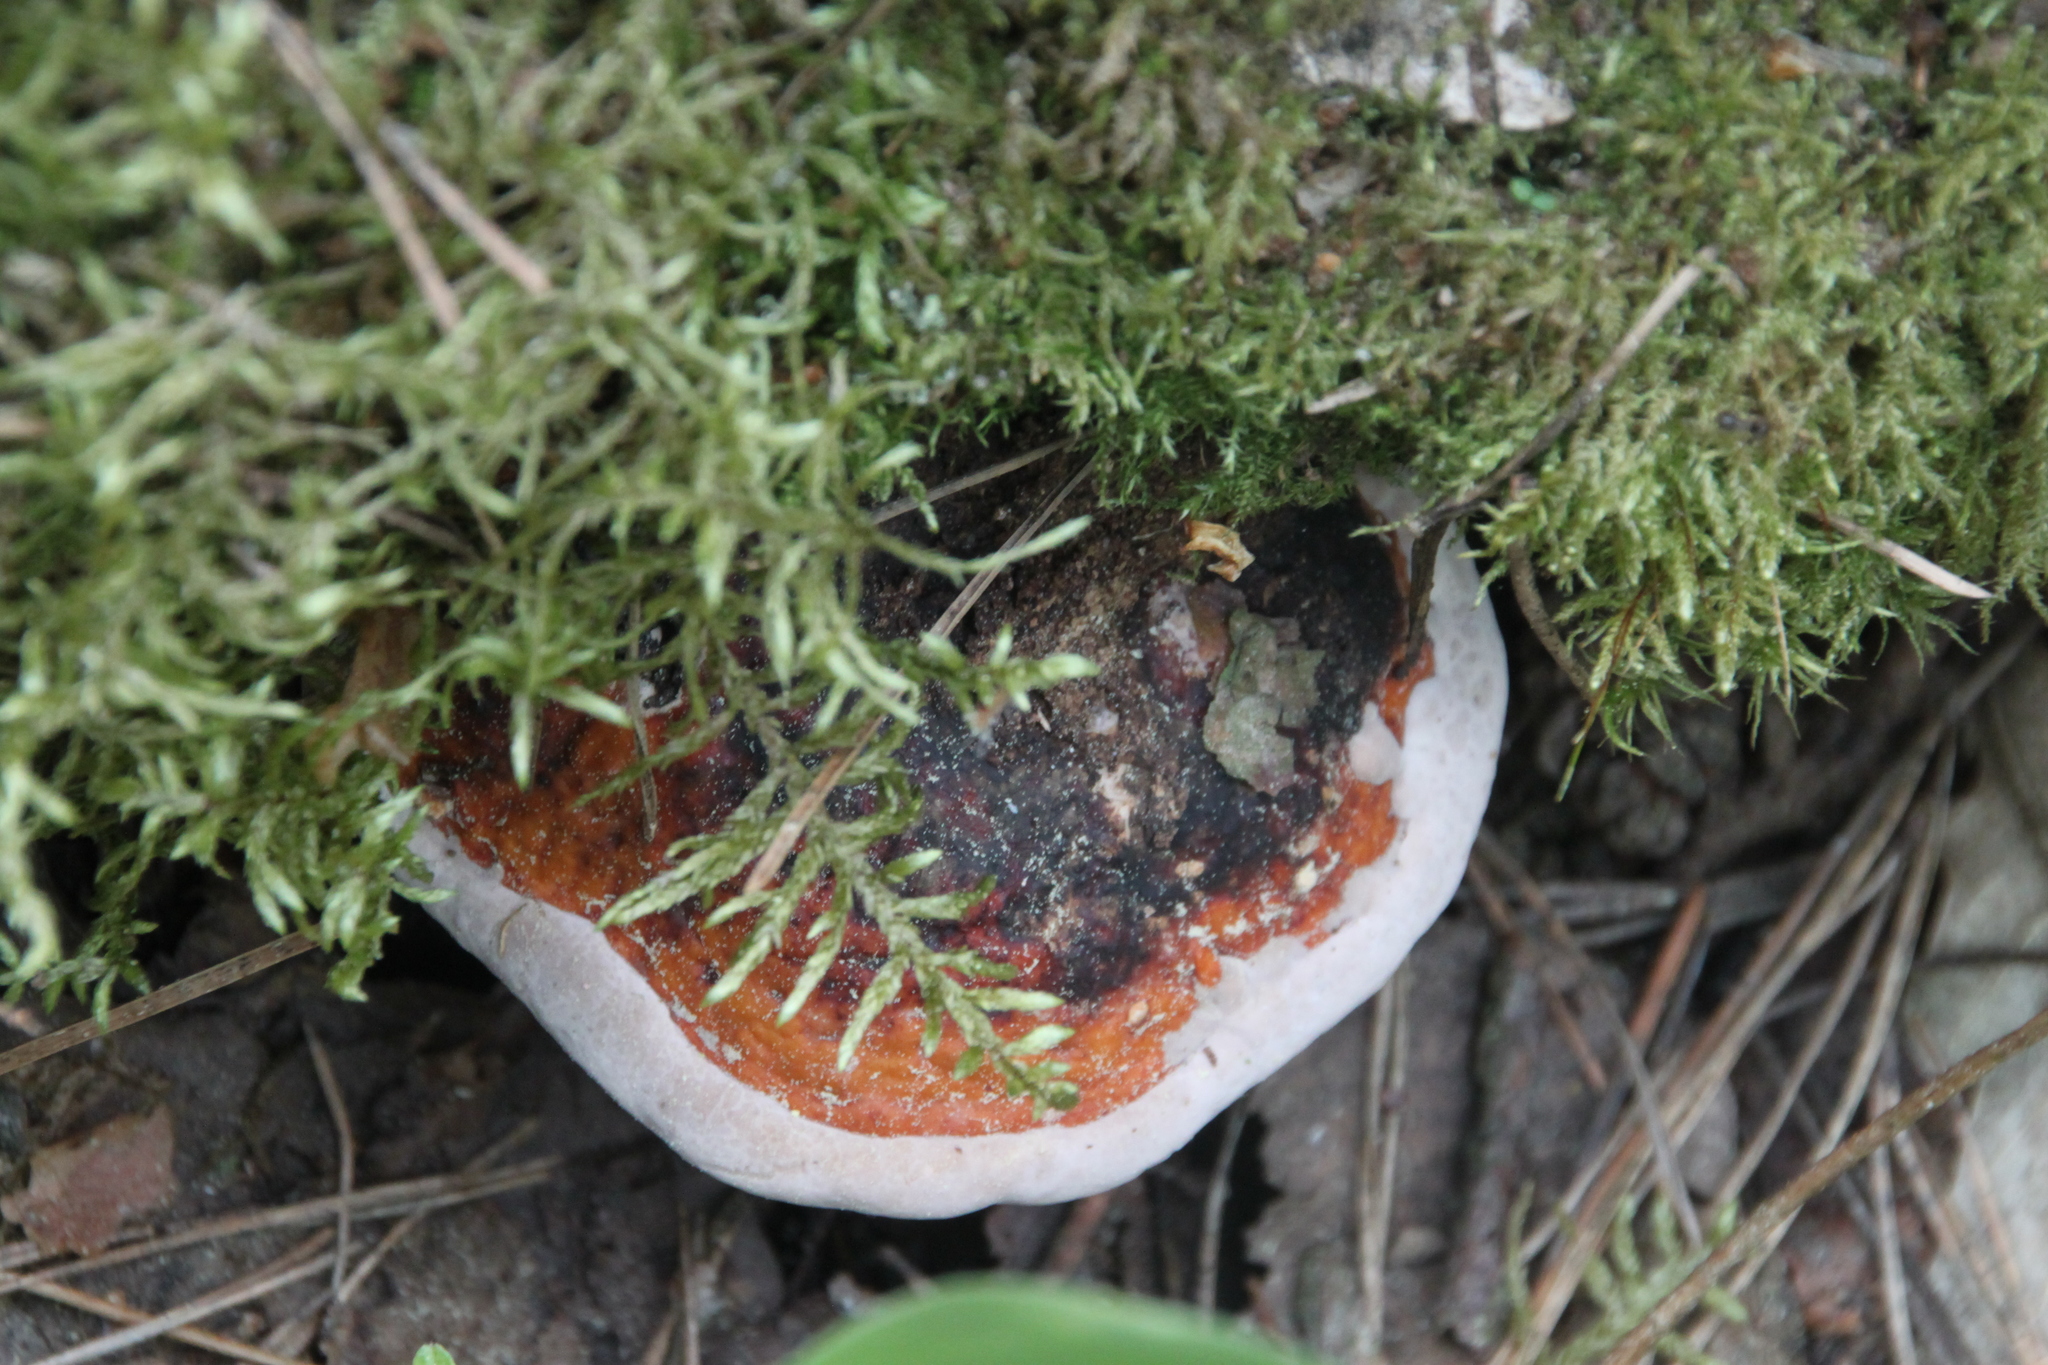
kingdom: Fungi
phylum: Basidiomycota
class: Agaricomycetes
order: Polyporales
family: Fomitopsidaceae
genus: Fomitopsis
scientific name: Fomitopsis pinicola
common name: Red-belted bracket
